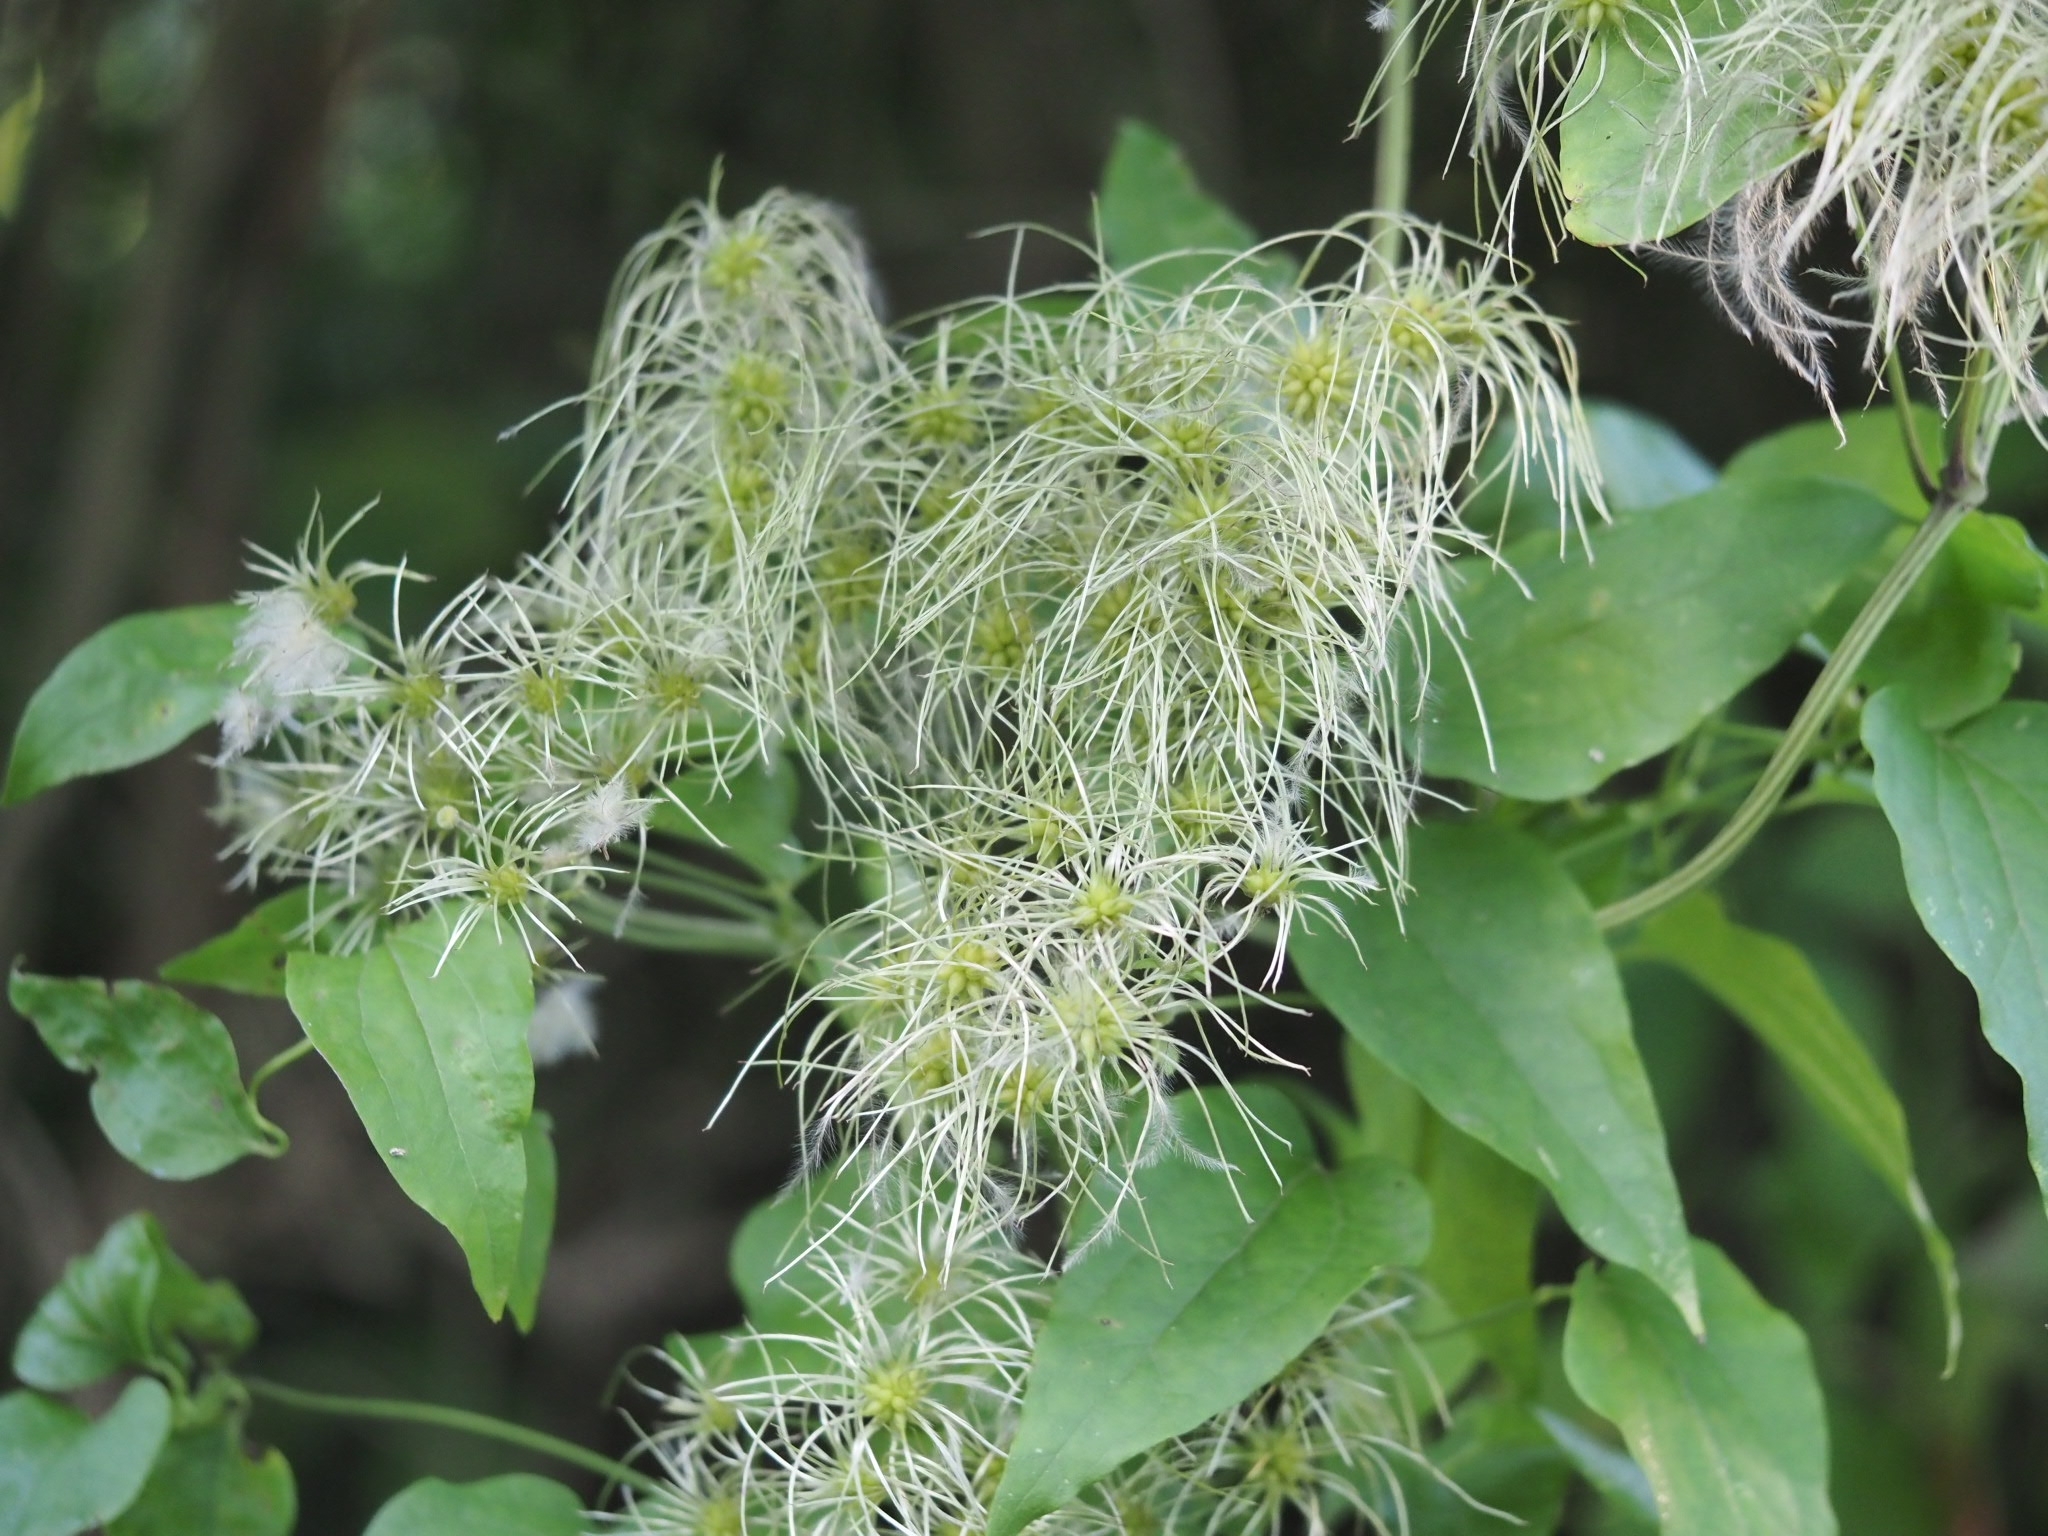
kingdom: Plantae
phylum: Tracheophyta
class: Magnoliopsida
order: Ranunculales
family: Ranunculaceae
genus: Clematis
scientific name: Clematis vitalba
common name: Evergreen clematis
